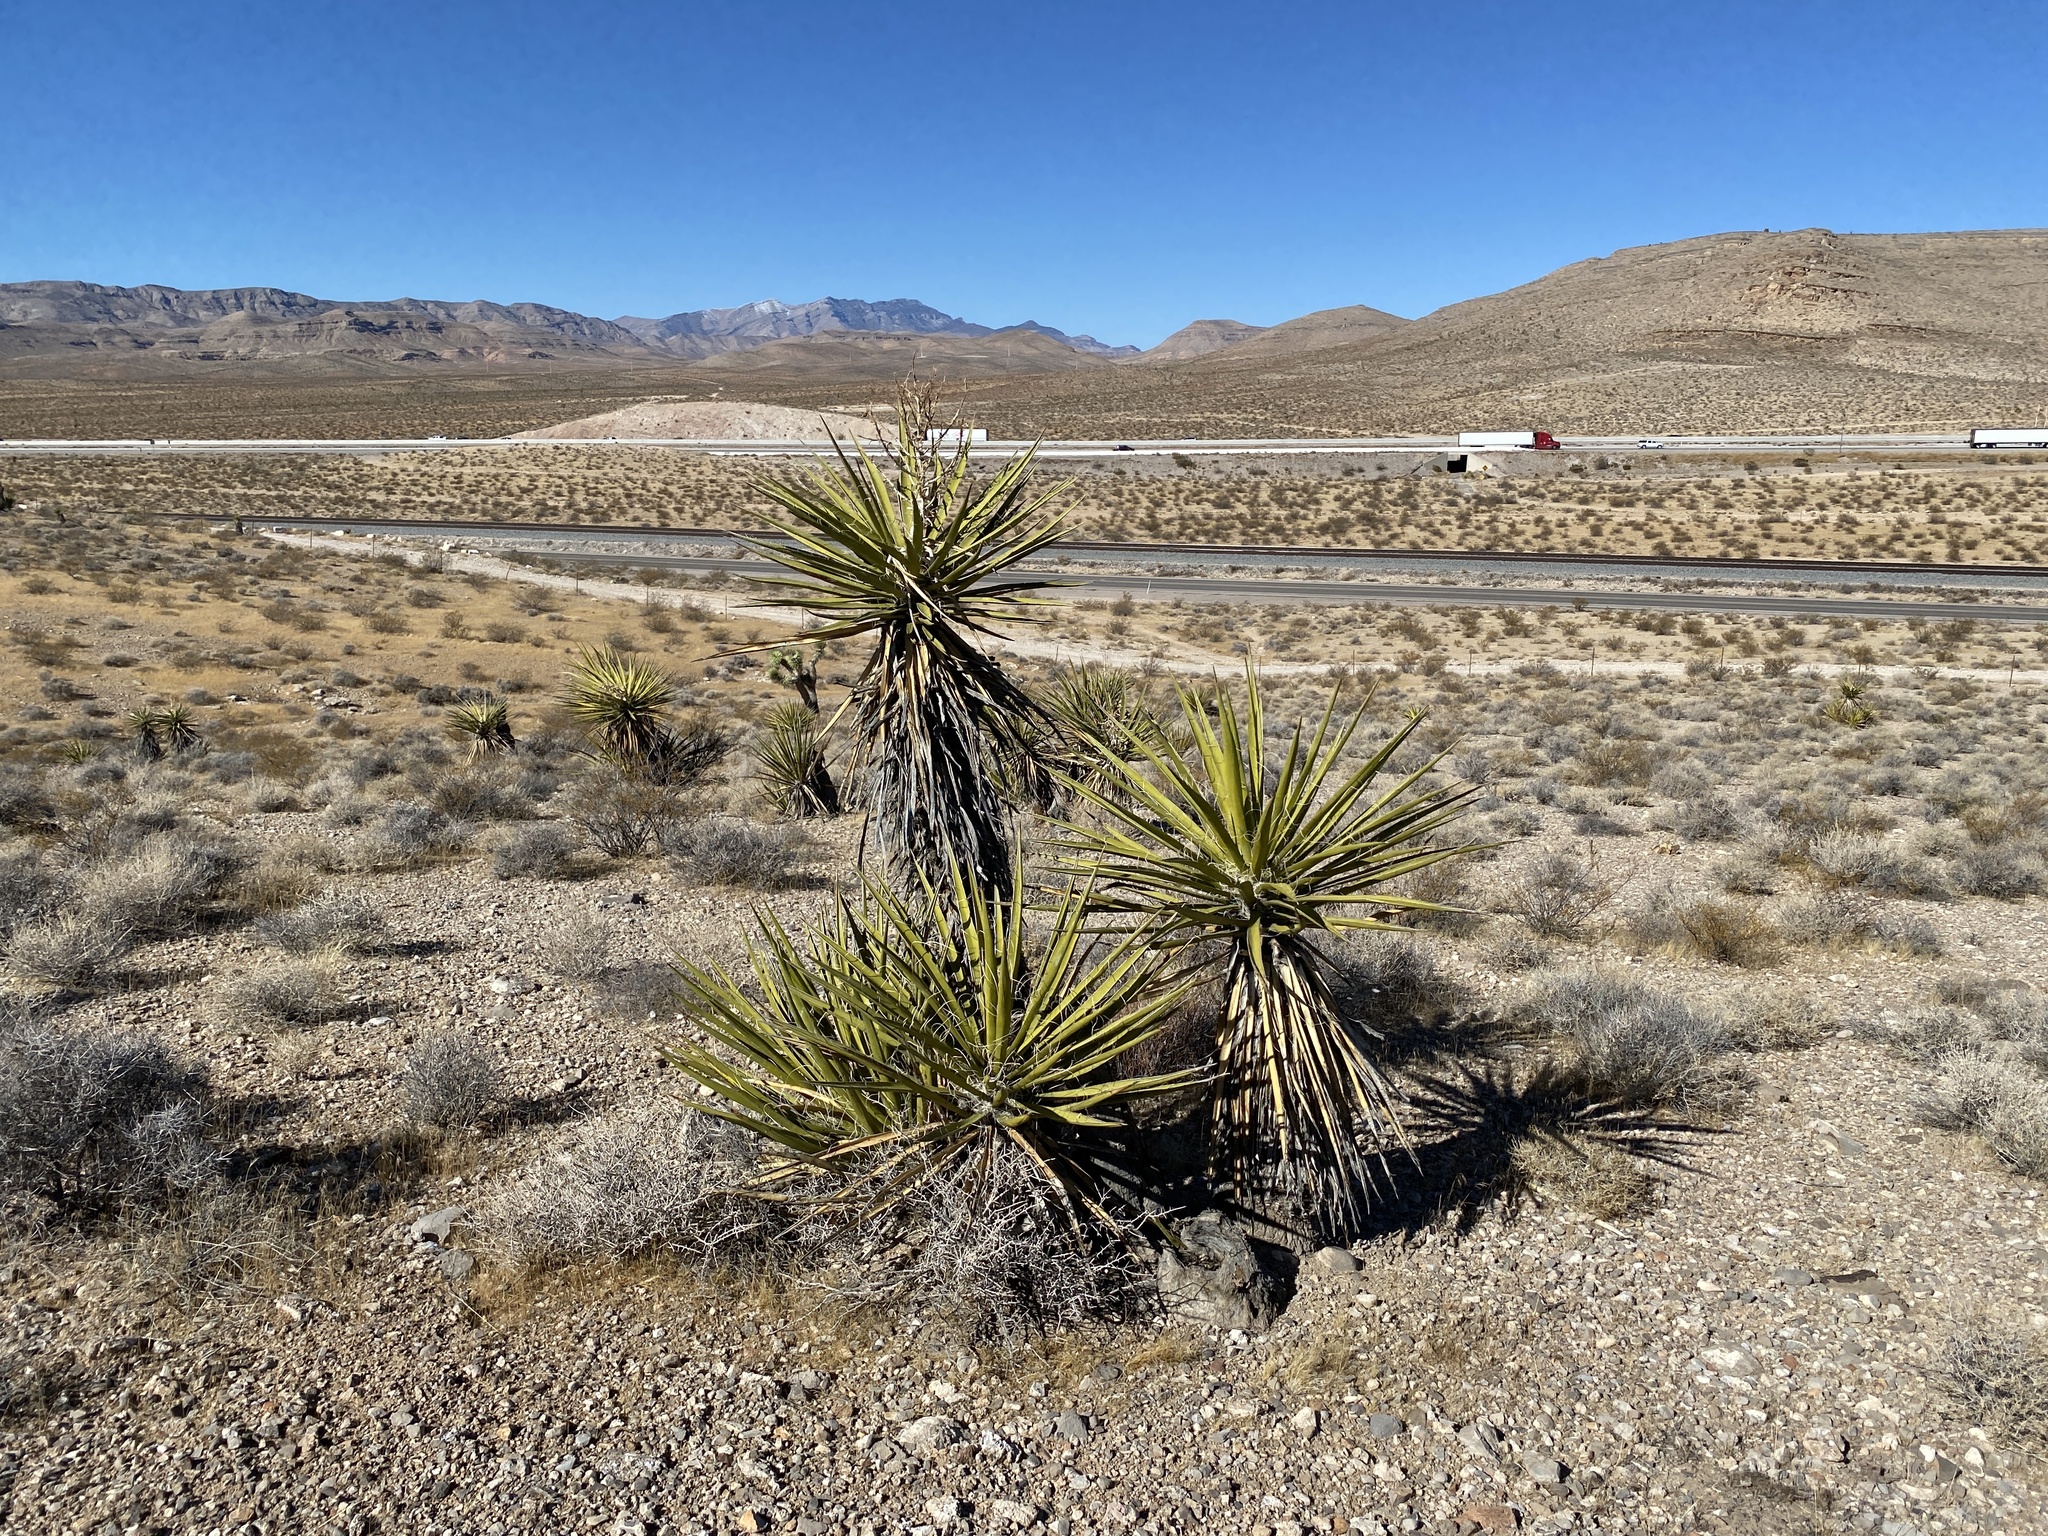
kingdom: Plantae
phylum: Tracheophyta
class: Liliopsida
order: Asparagales
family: Asparagaceae
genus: Yucca
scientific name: Yucca schidigera
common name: Mojave yucca
